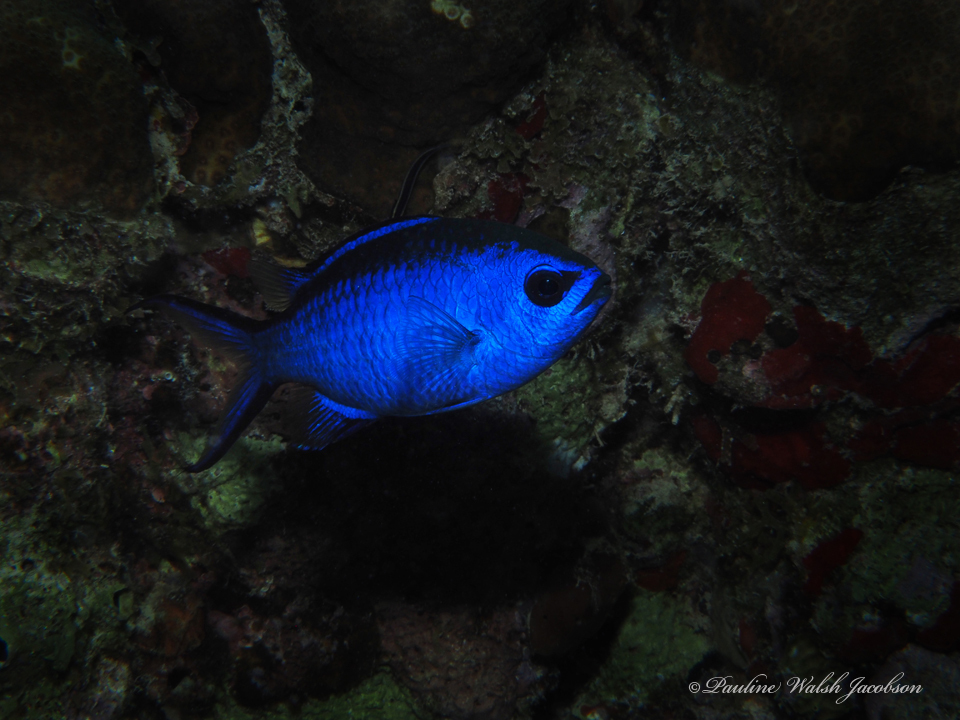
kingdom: Animalia
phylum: Chordata
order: Perciformes
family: Pomacentridae
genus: Chromis
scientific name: Chromis cyanea
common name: Blue chromis
